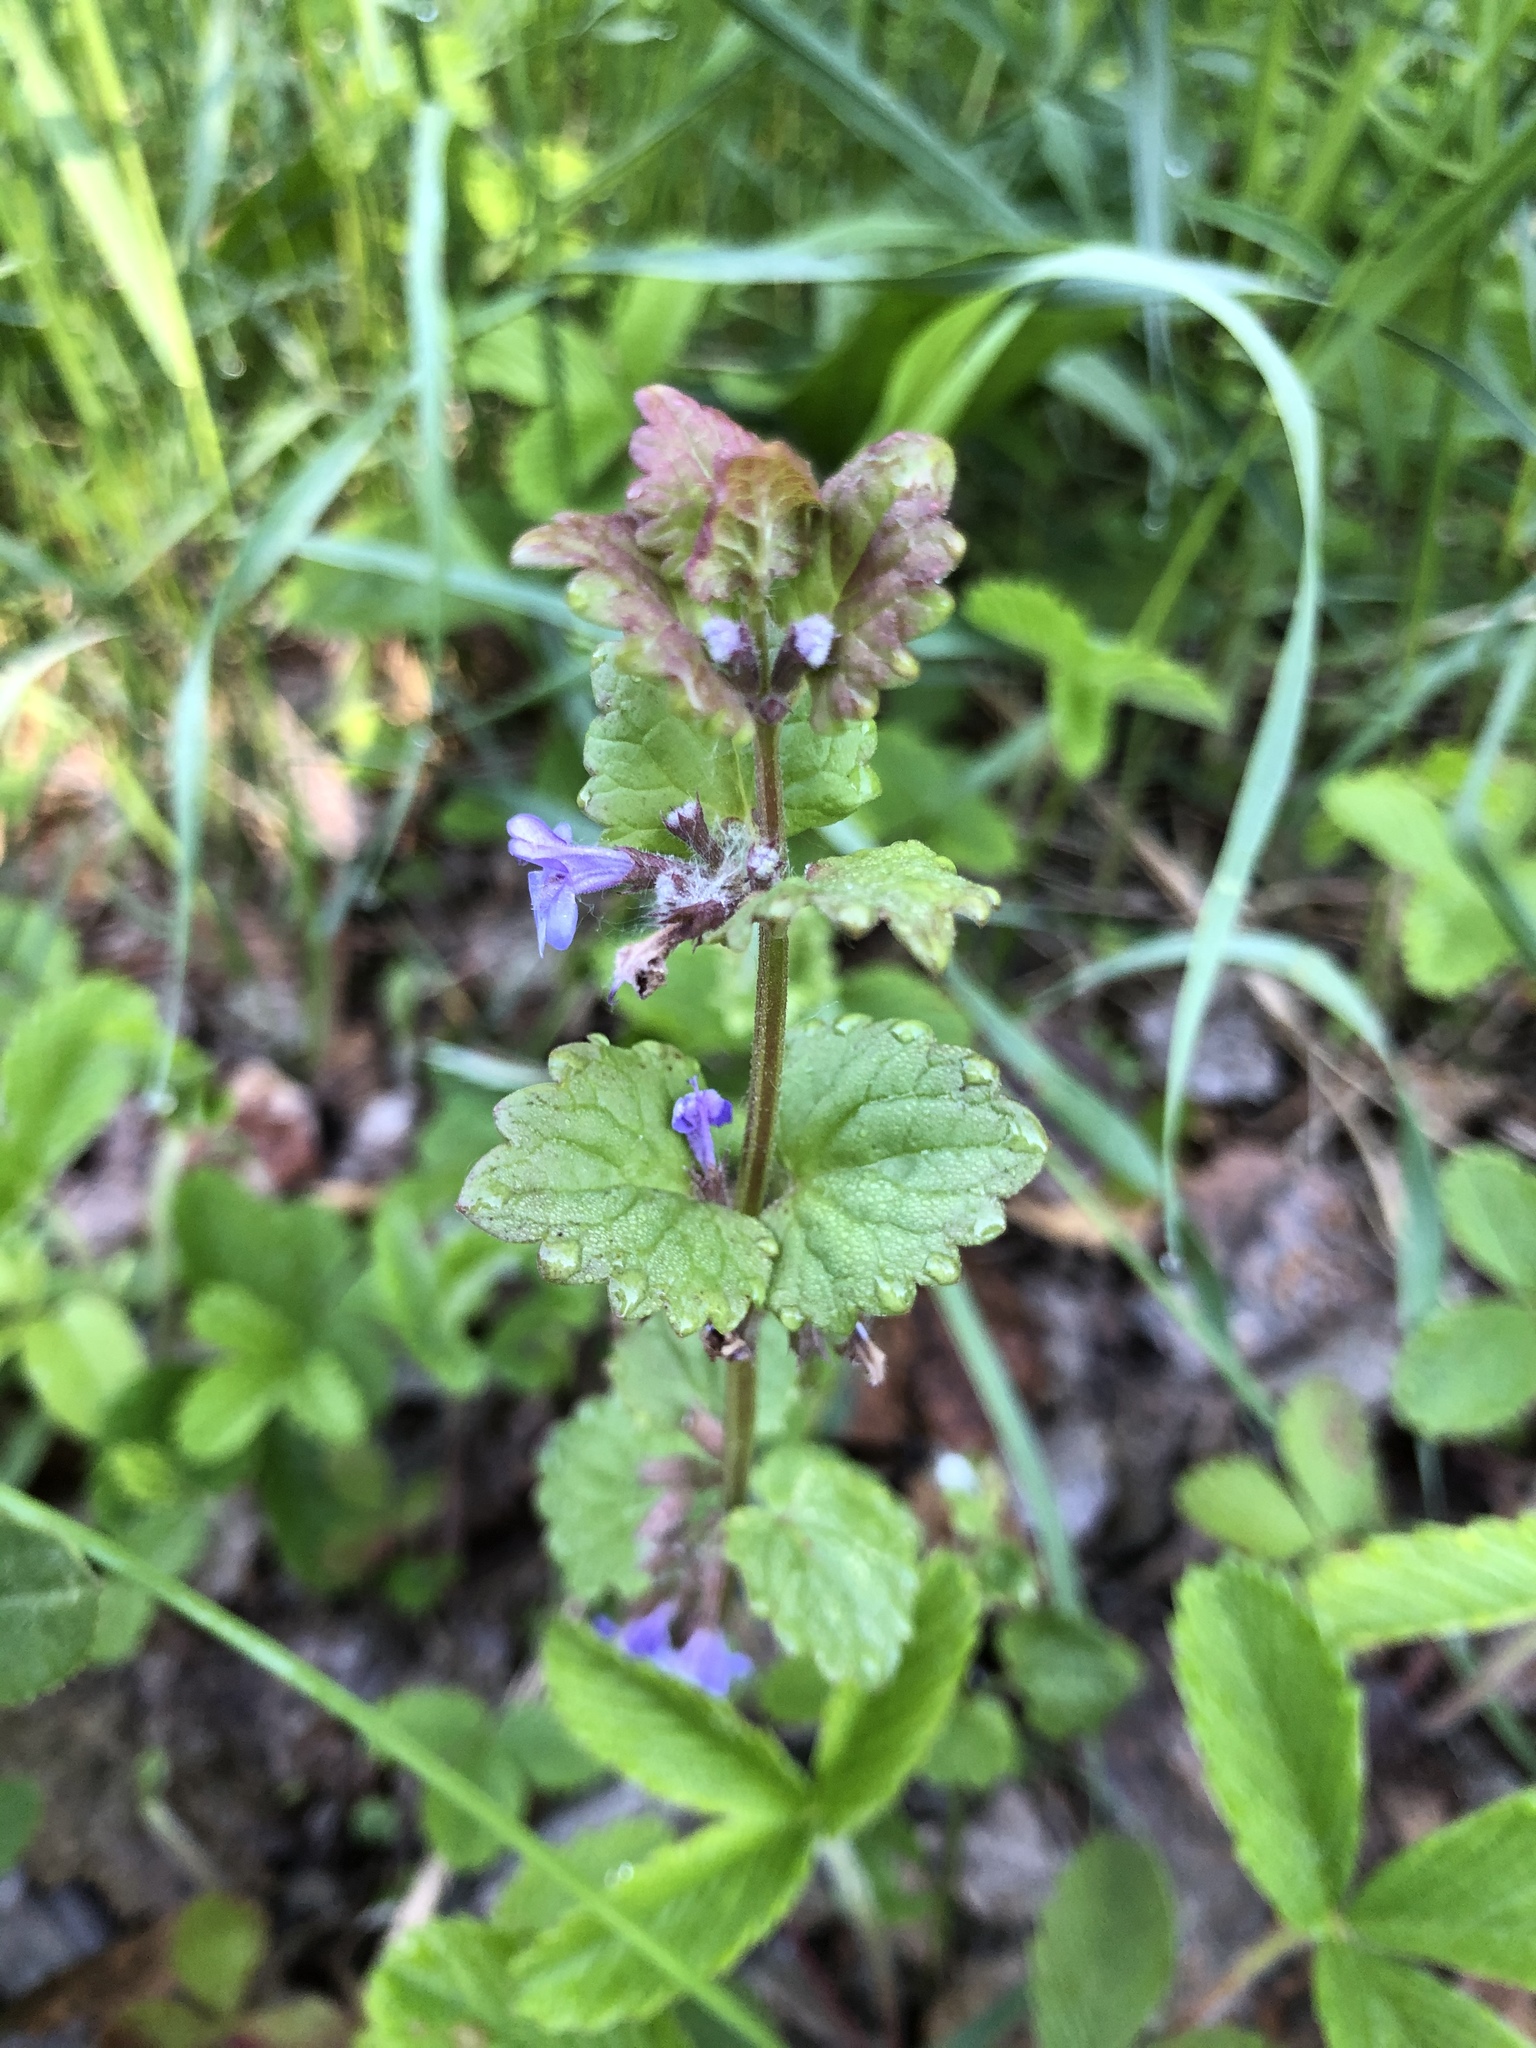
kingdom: Plantae
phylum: Tracheophyta
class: Magnoliopsida
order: Lamiales
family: Lamiaceae
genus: Glechoma
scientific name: Glechoma hederacea
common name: Ground ivy
